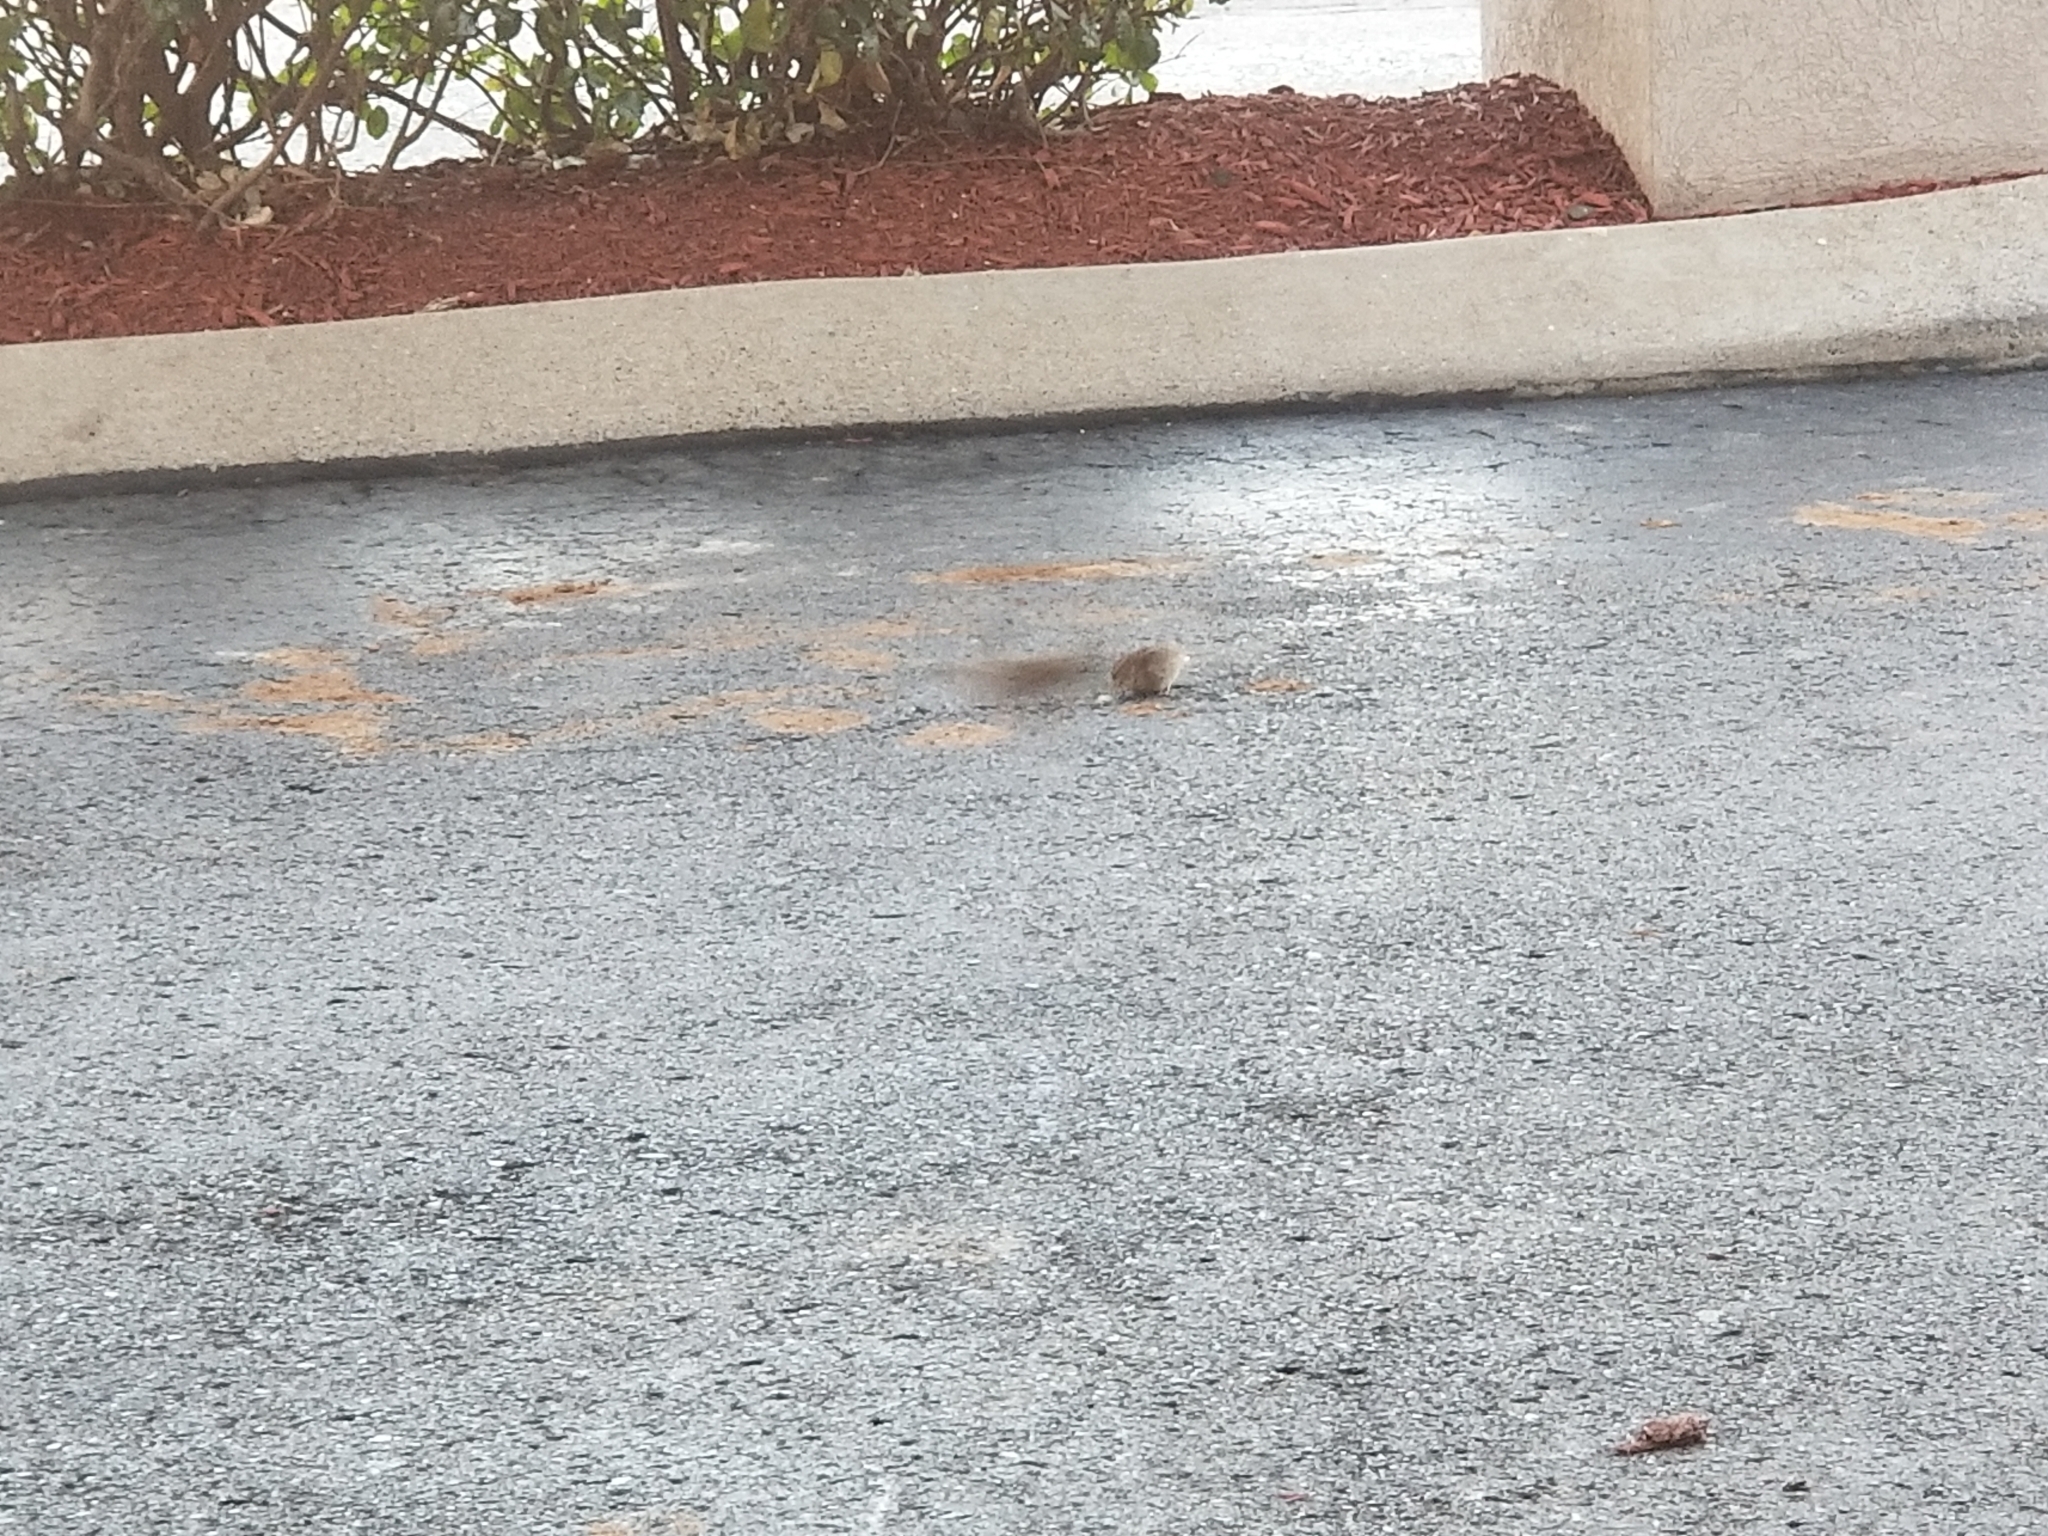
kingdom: Animalia
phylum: Chordata
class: Aves
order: Passeriformes
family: Passeridae
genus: Passer
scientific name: Passer domesticus
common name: House sparrow
